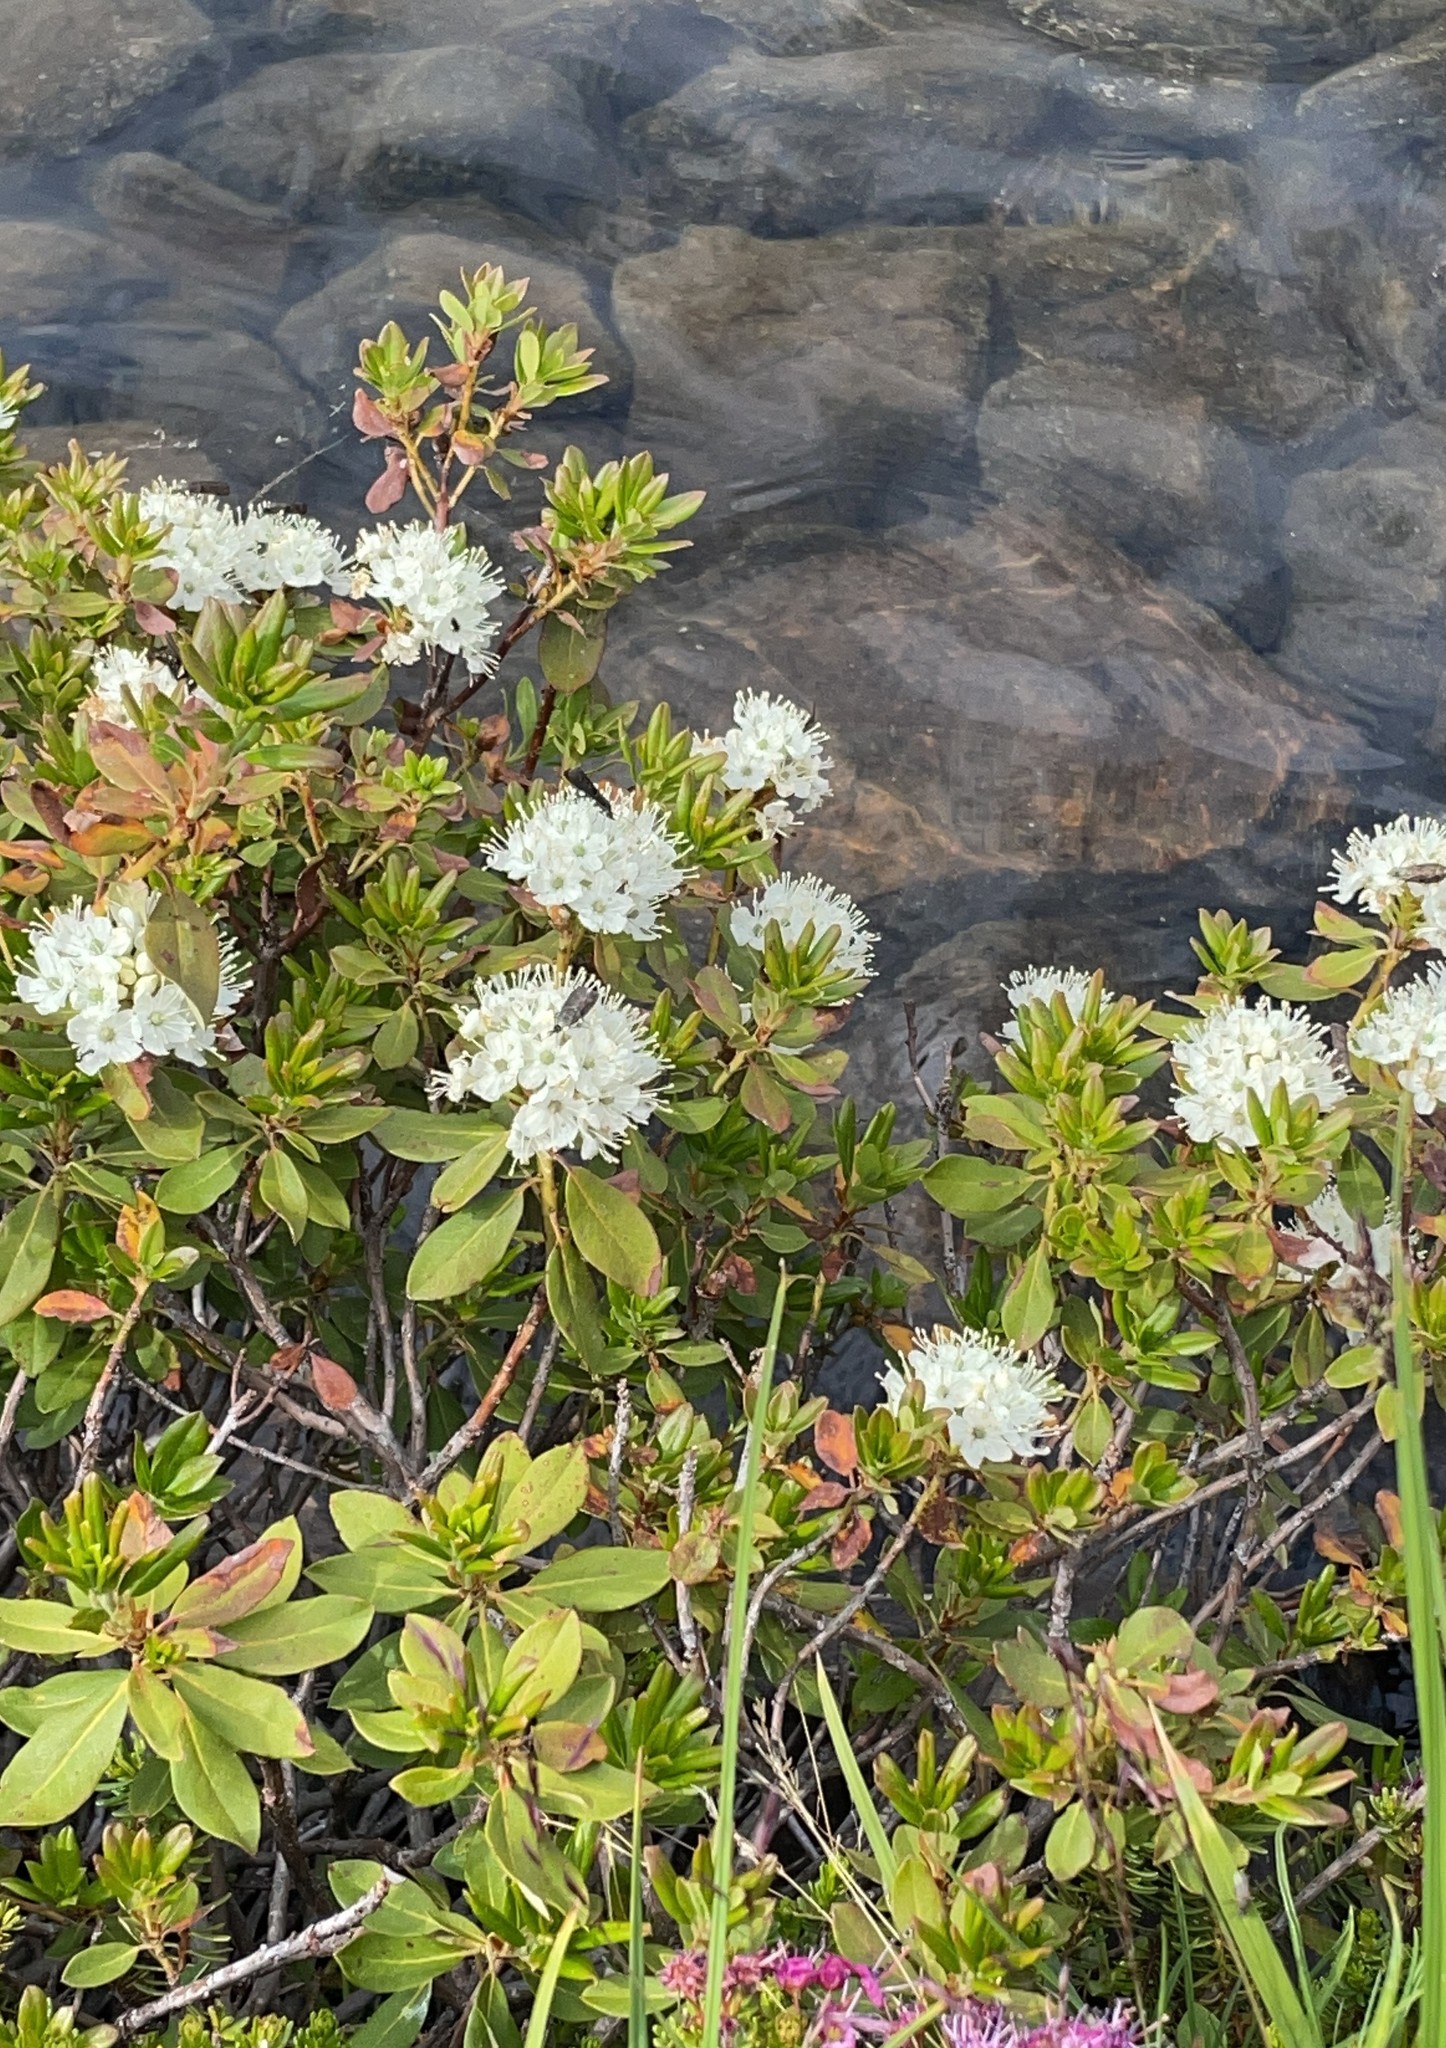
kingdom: Plantae
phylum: Tracheophyta
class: Magnoliopsida
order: Ericales
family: Ericaceae
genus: Rhododendron
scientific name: Rhododendron columbianum
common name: Western labrador tea
